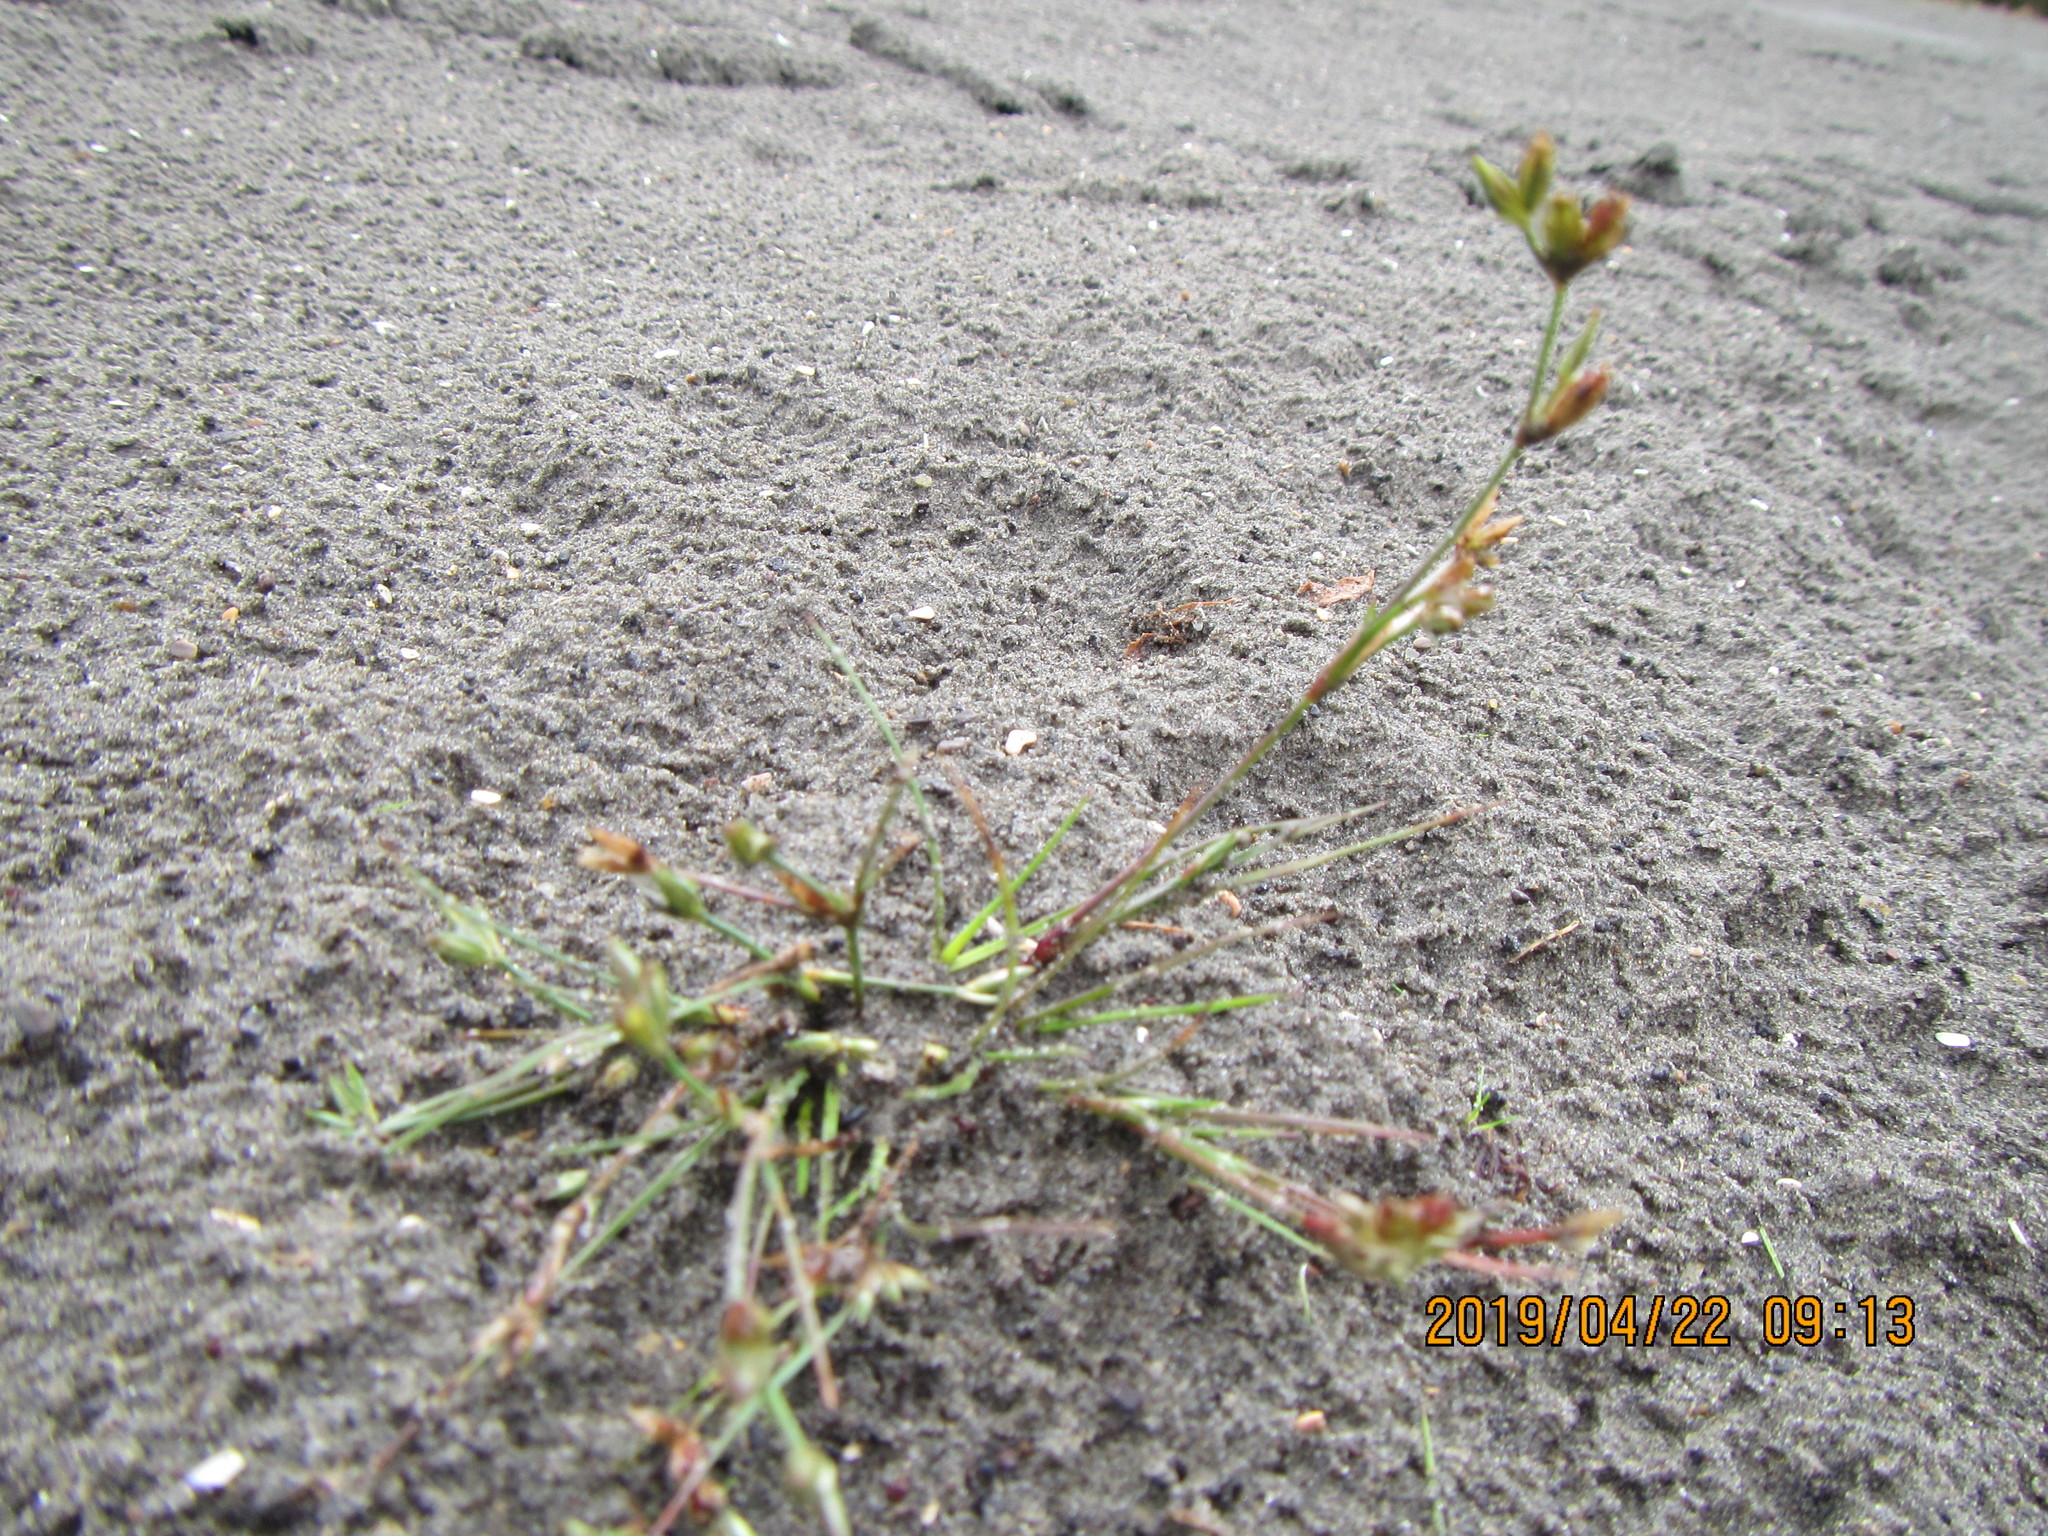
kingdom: Plantae
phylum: Tracheophyta
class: Liliopsida
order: Poales
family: Juncaceae
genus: Juncus
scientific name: Juncus bufonius
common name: Toad rush
